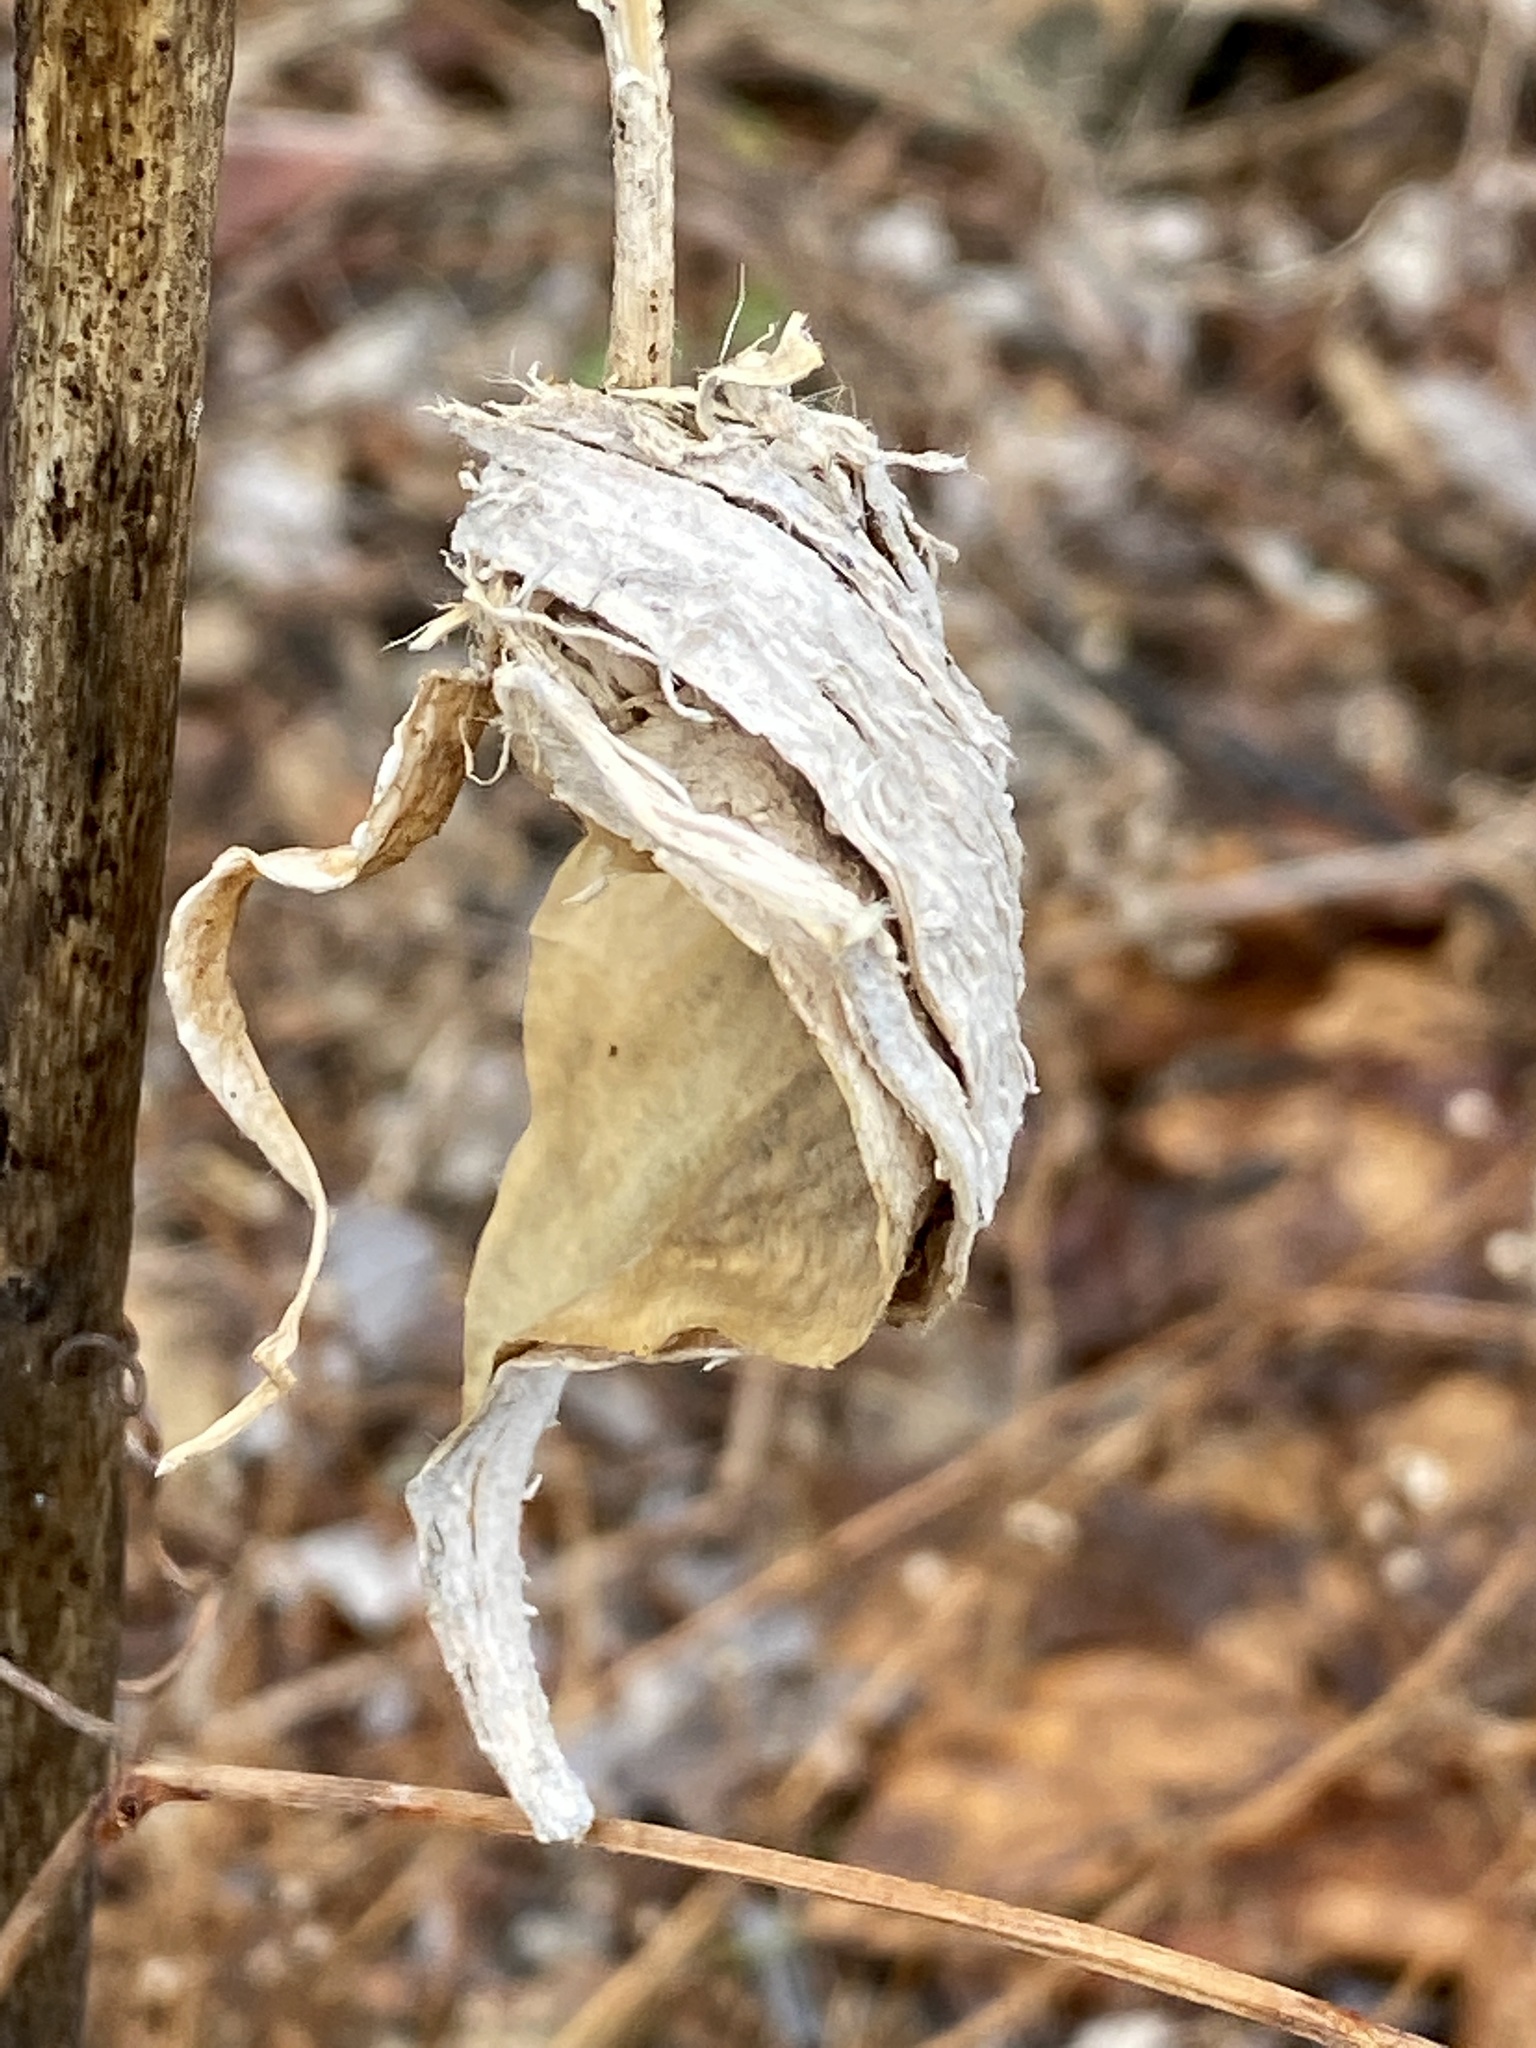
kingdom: Plantae
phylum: Tracheophyta
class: Magnoliopsida
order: Gentianales
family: Apocynaceae
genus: Asclepias
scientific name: Asclepias syriaca
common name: Common milkweed
